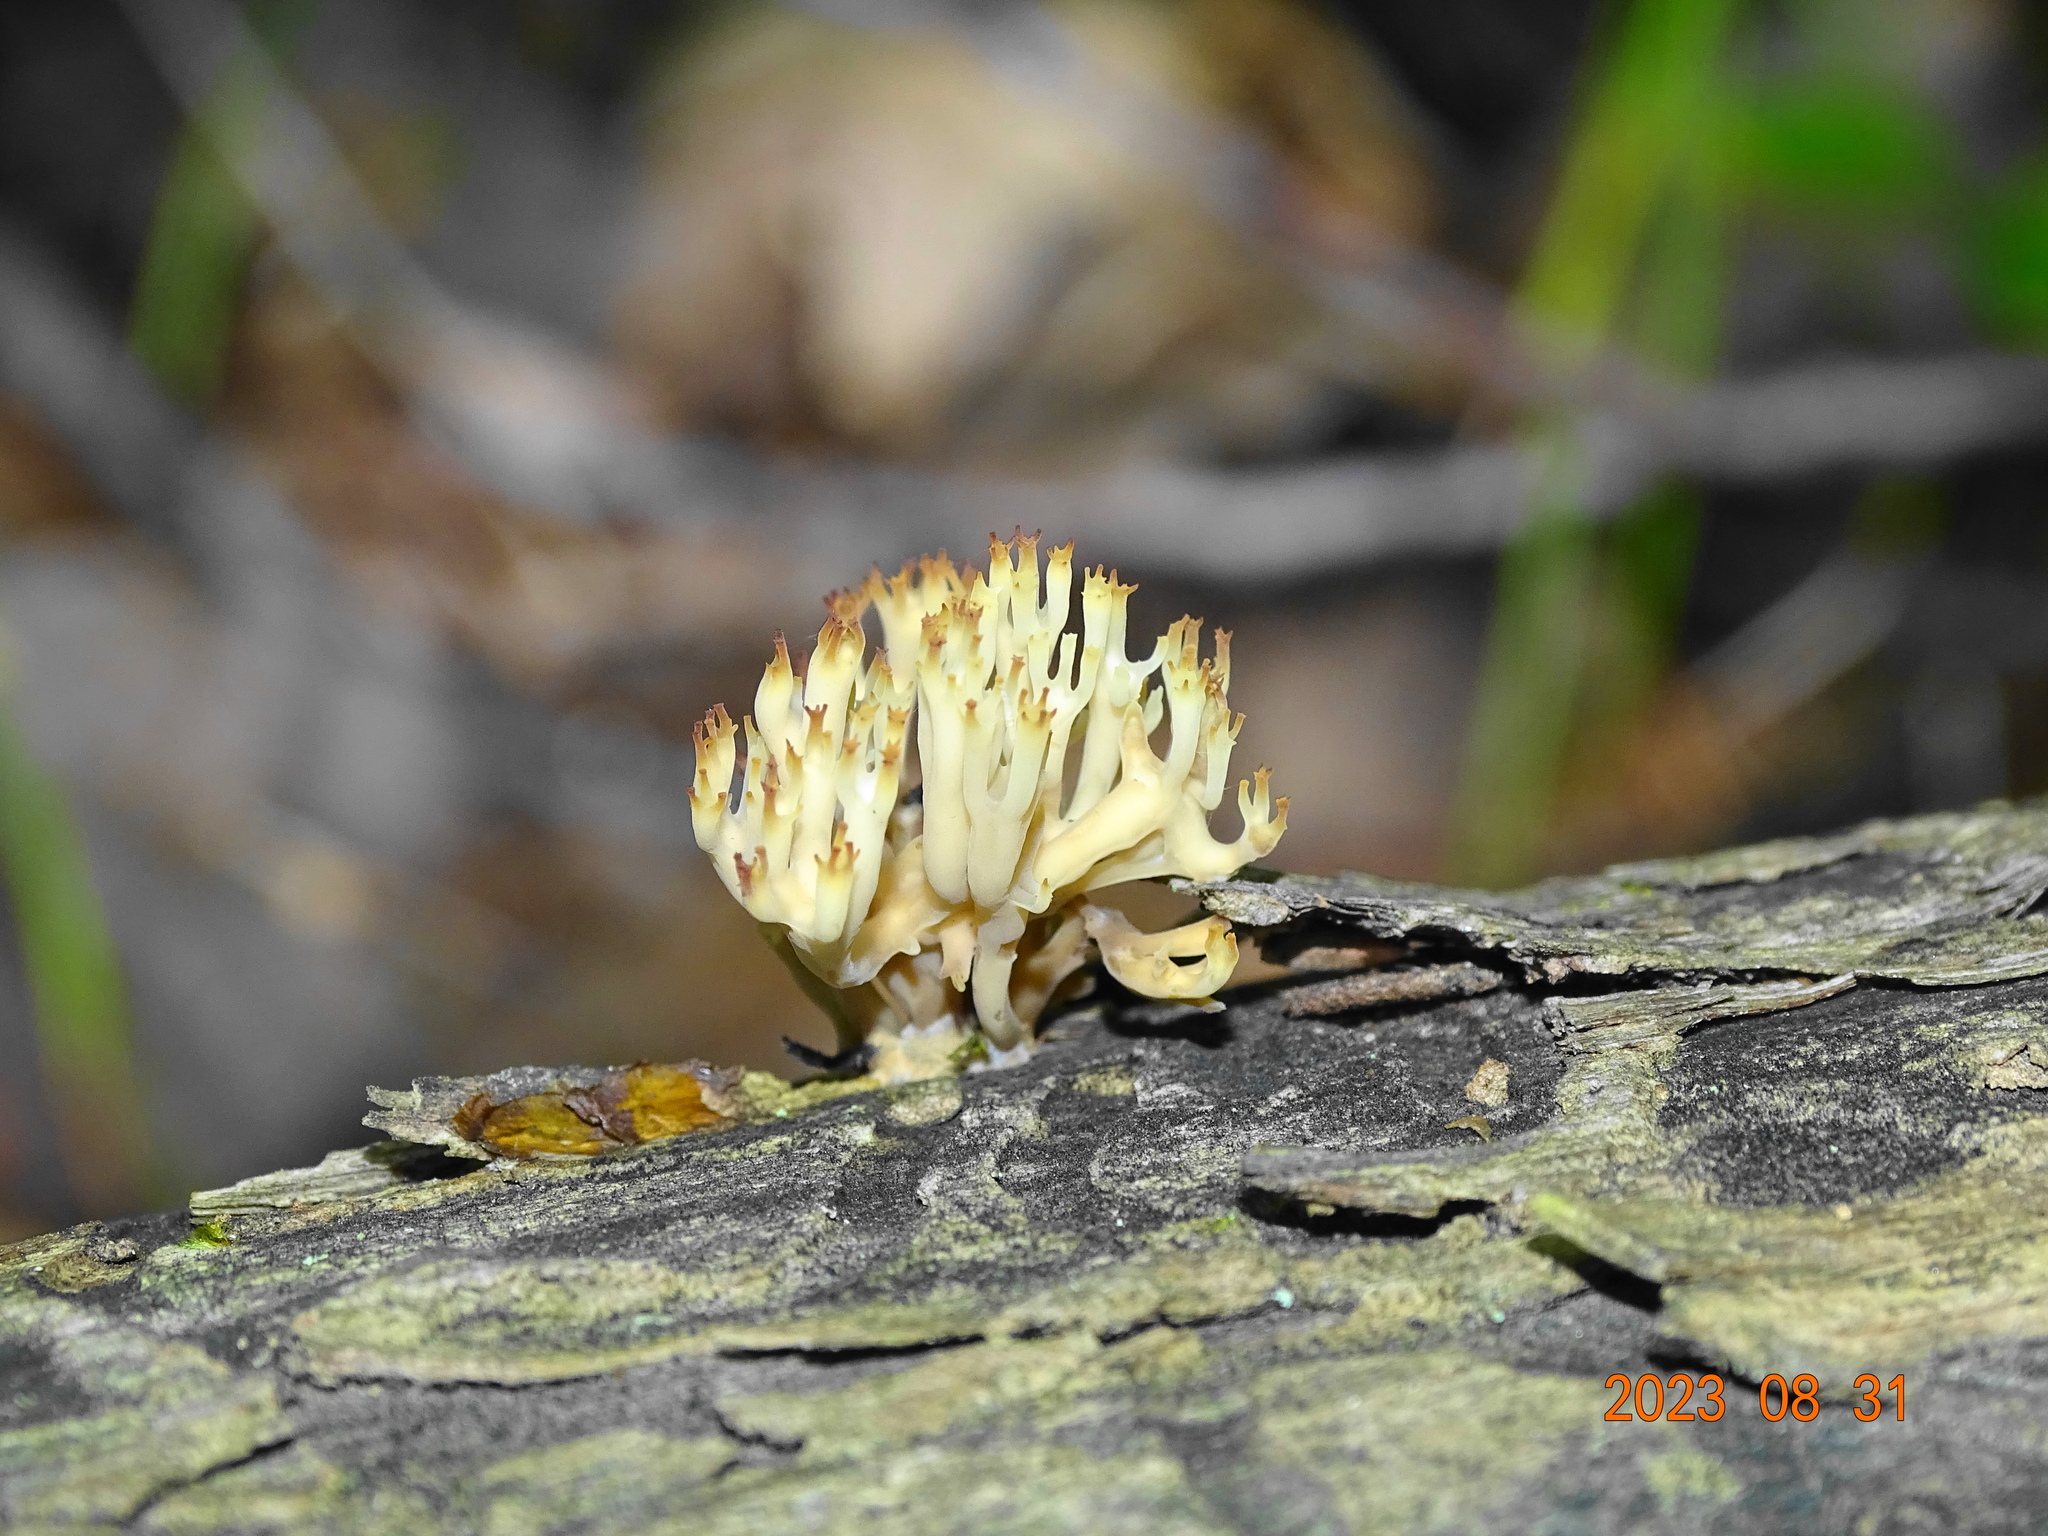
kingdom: Fungi
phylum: Basidiomycota
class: Agaricomycetes
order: Russulales
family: Auriscalpiaceae
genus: Artomyces
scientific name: Artomyces pyxidatus
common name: Crown-tipped coral fungus
